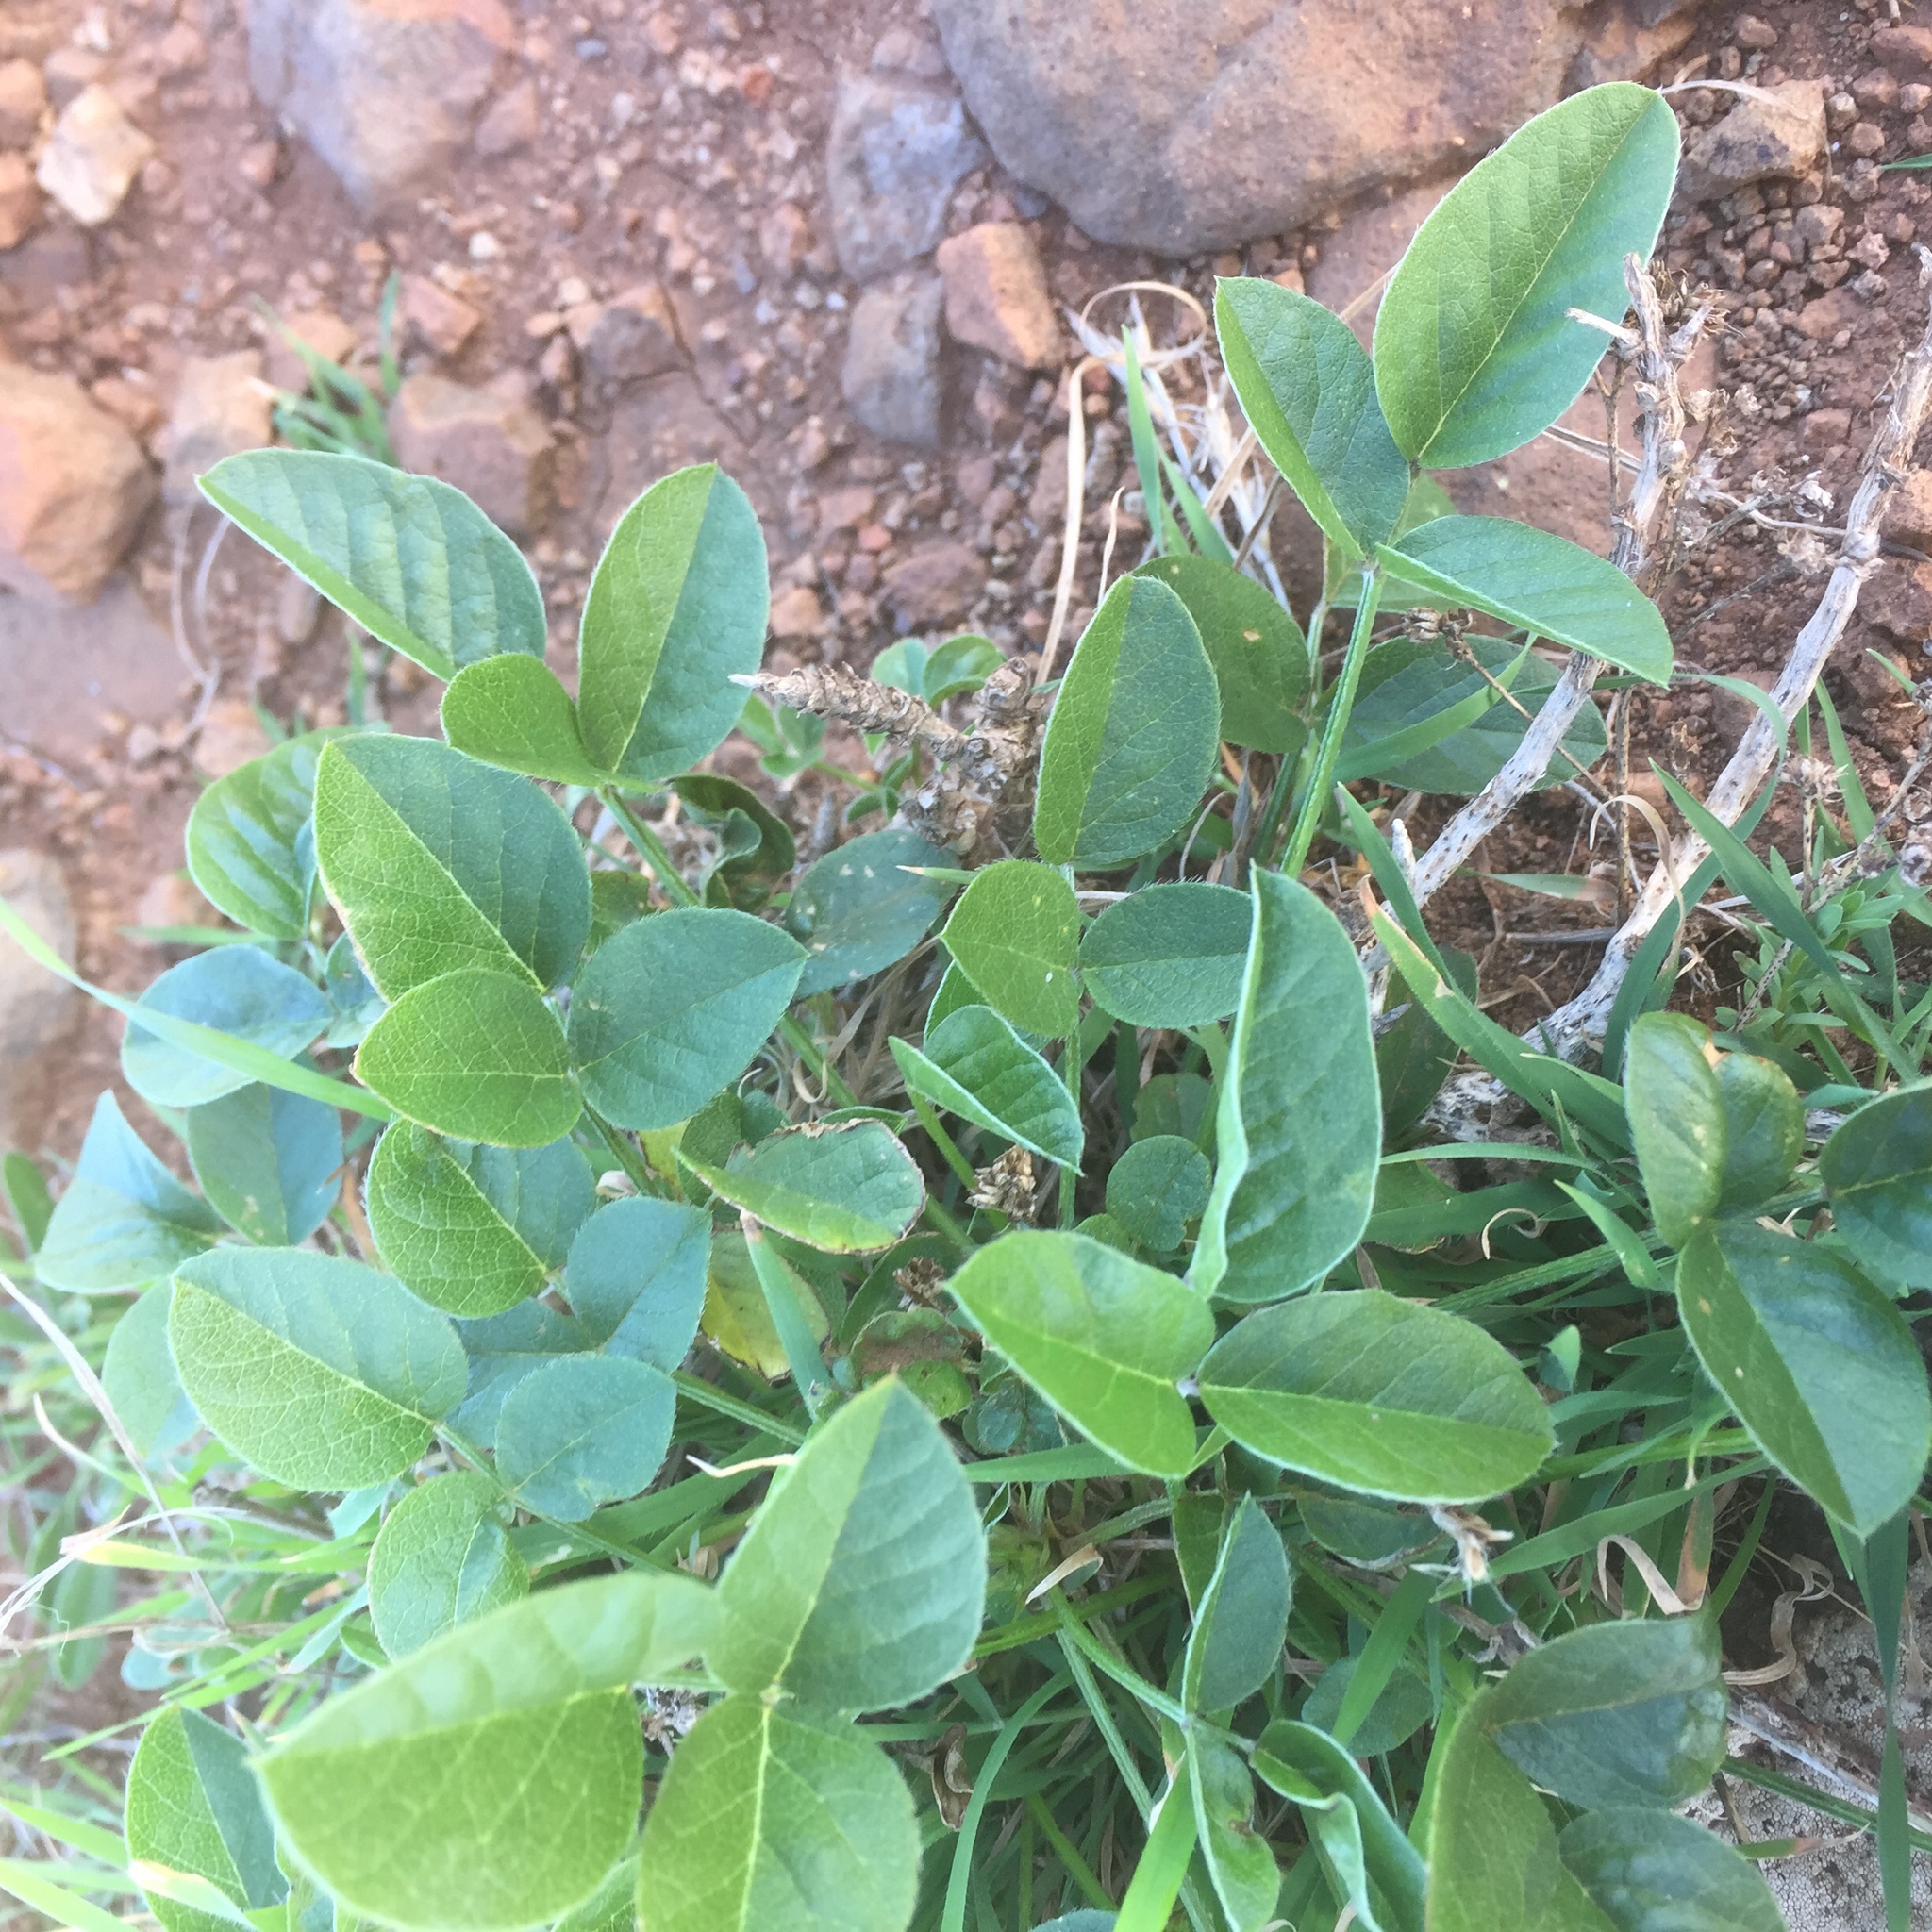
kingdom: Plantae
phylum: Tracheophyta
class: Magnoliopsida
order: Fabales
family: Fabaceae
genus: Bituminaria
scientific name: Bituminaria bituminosa
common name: Arabian pea
